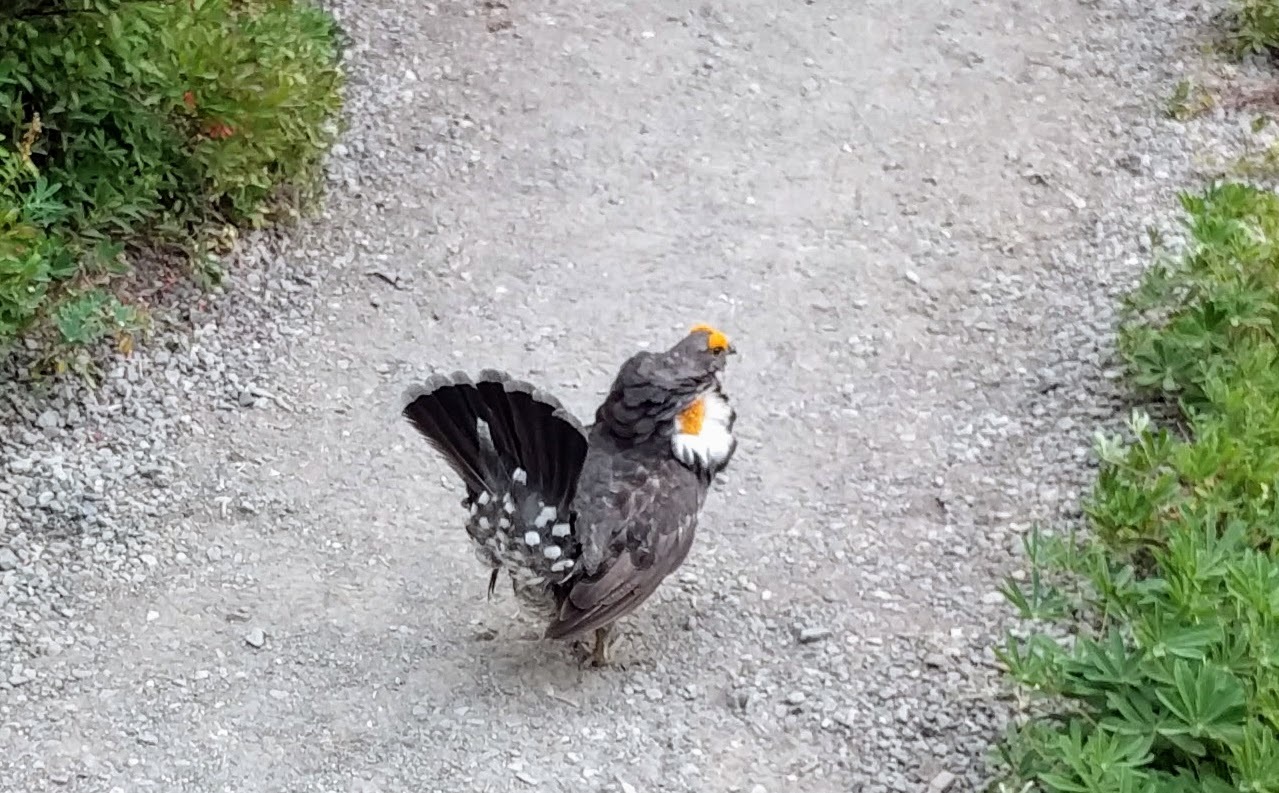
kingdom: Animalia
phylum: Chordata
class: Aves
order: Galliformes
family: Phasianidae
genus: Dendragapus
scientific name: Dendragapus fuliginosus
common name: Sooty grouse
